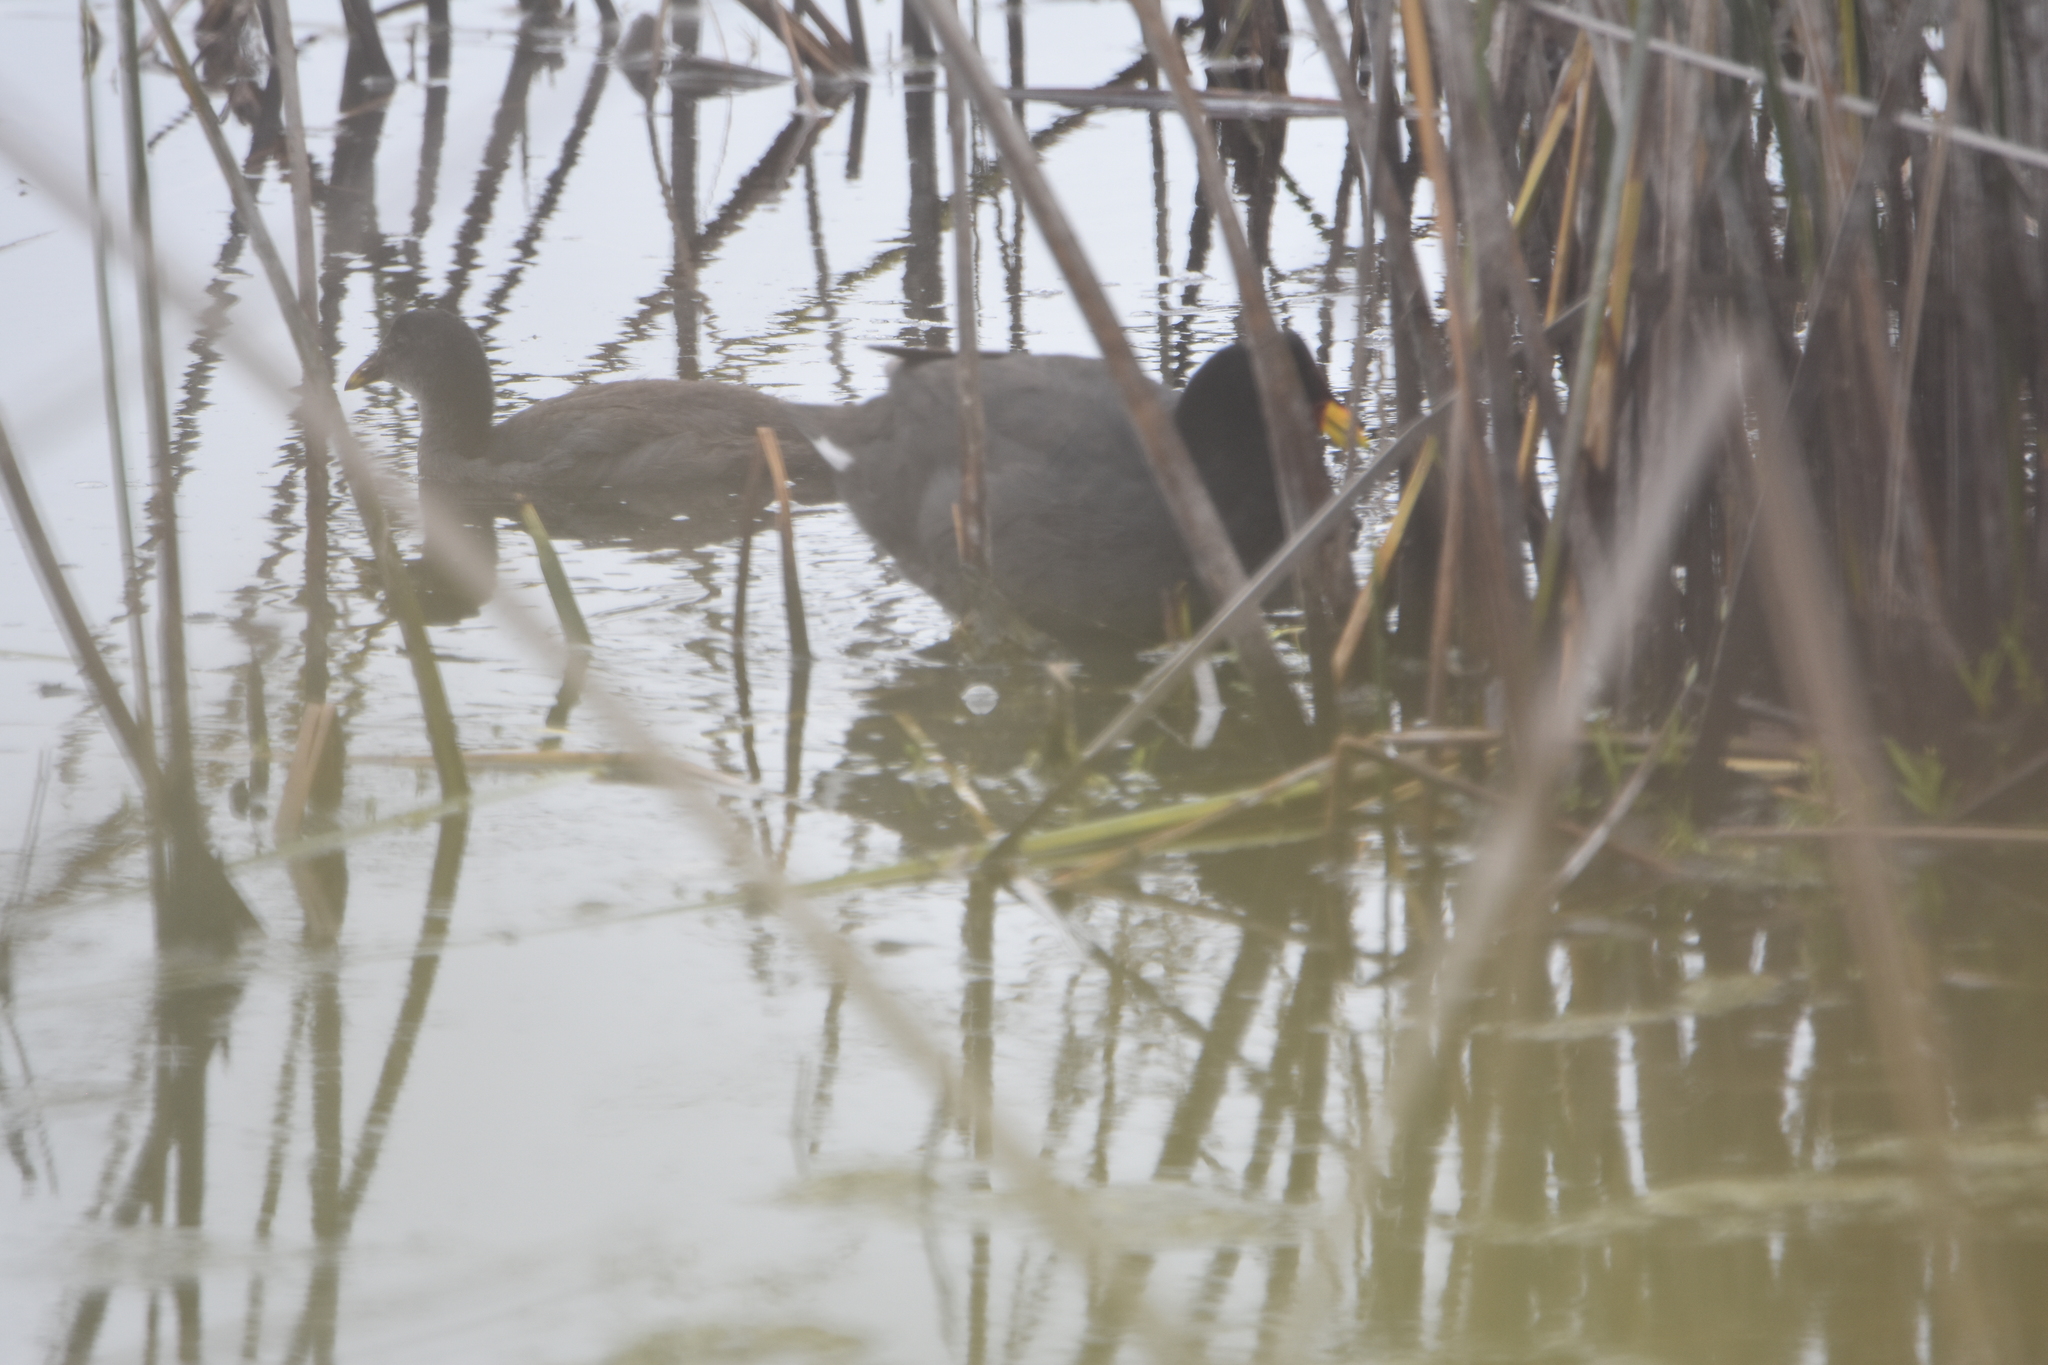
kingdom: Animalia
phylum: Chordata
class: Aves
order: Gruiformes
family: Rallidae
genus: Fulica
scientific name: Fulica rufifrons
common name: Red-fronted coot
